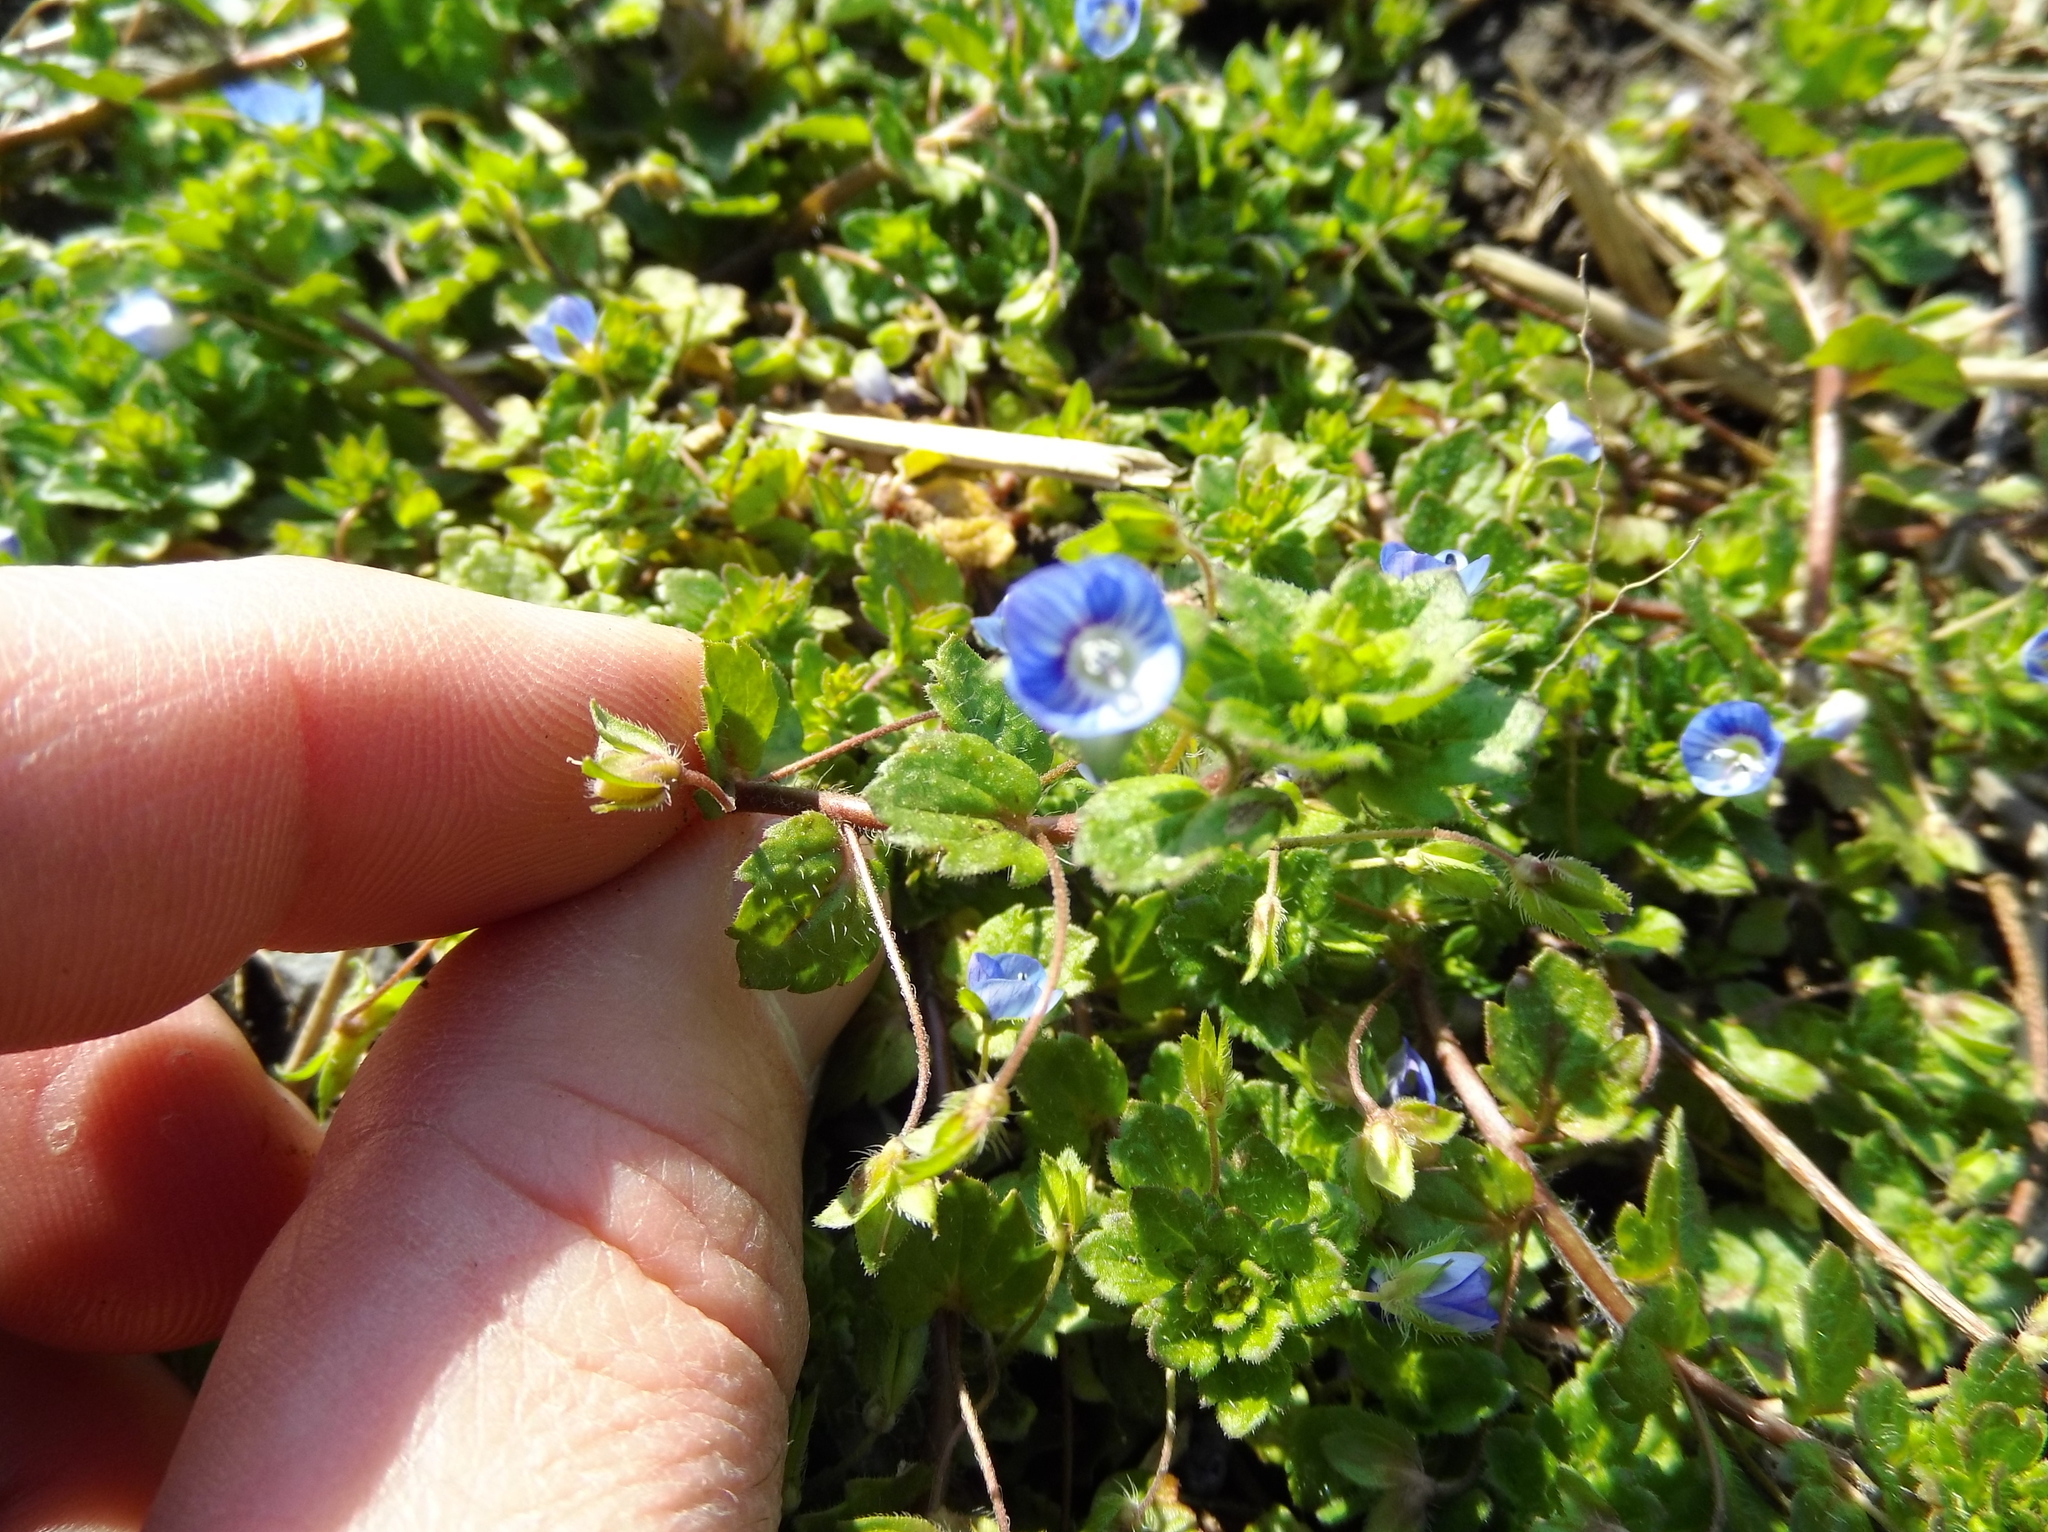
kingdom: Plantae
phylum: Tracheophyta
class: Magnoliopsida
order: Lamiales
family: Plantaginaceae
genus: Veronica
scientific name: Veronica persica
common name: Common field-speedwell
